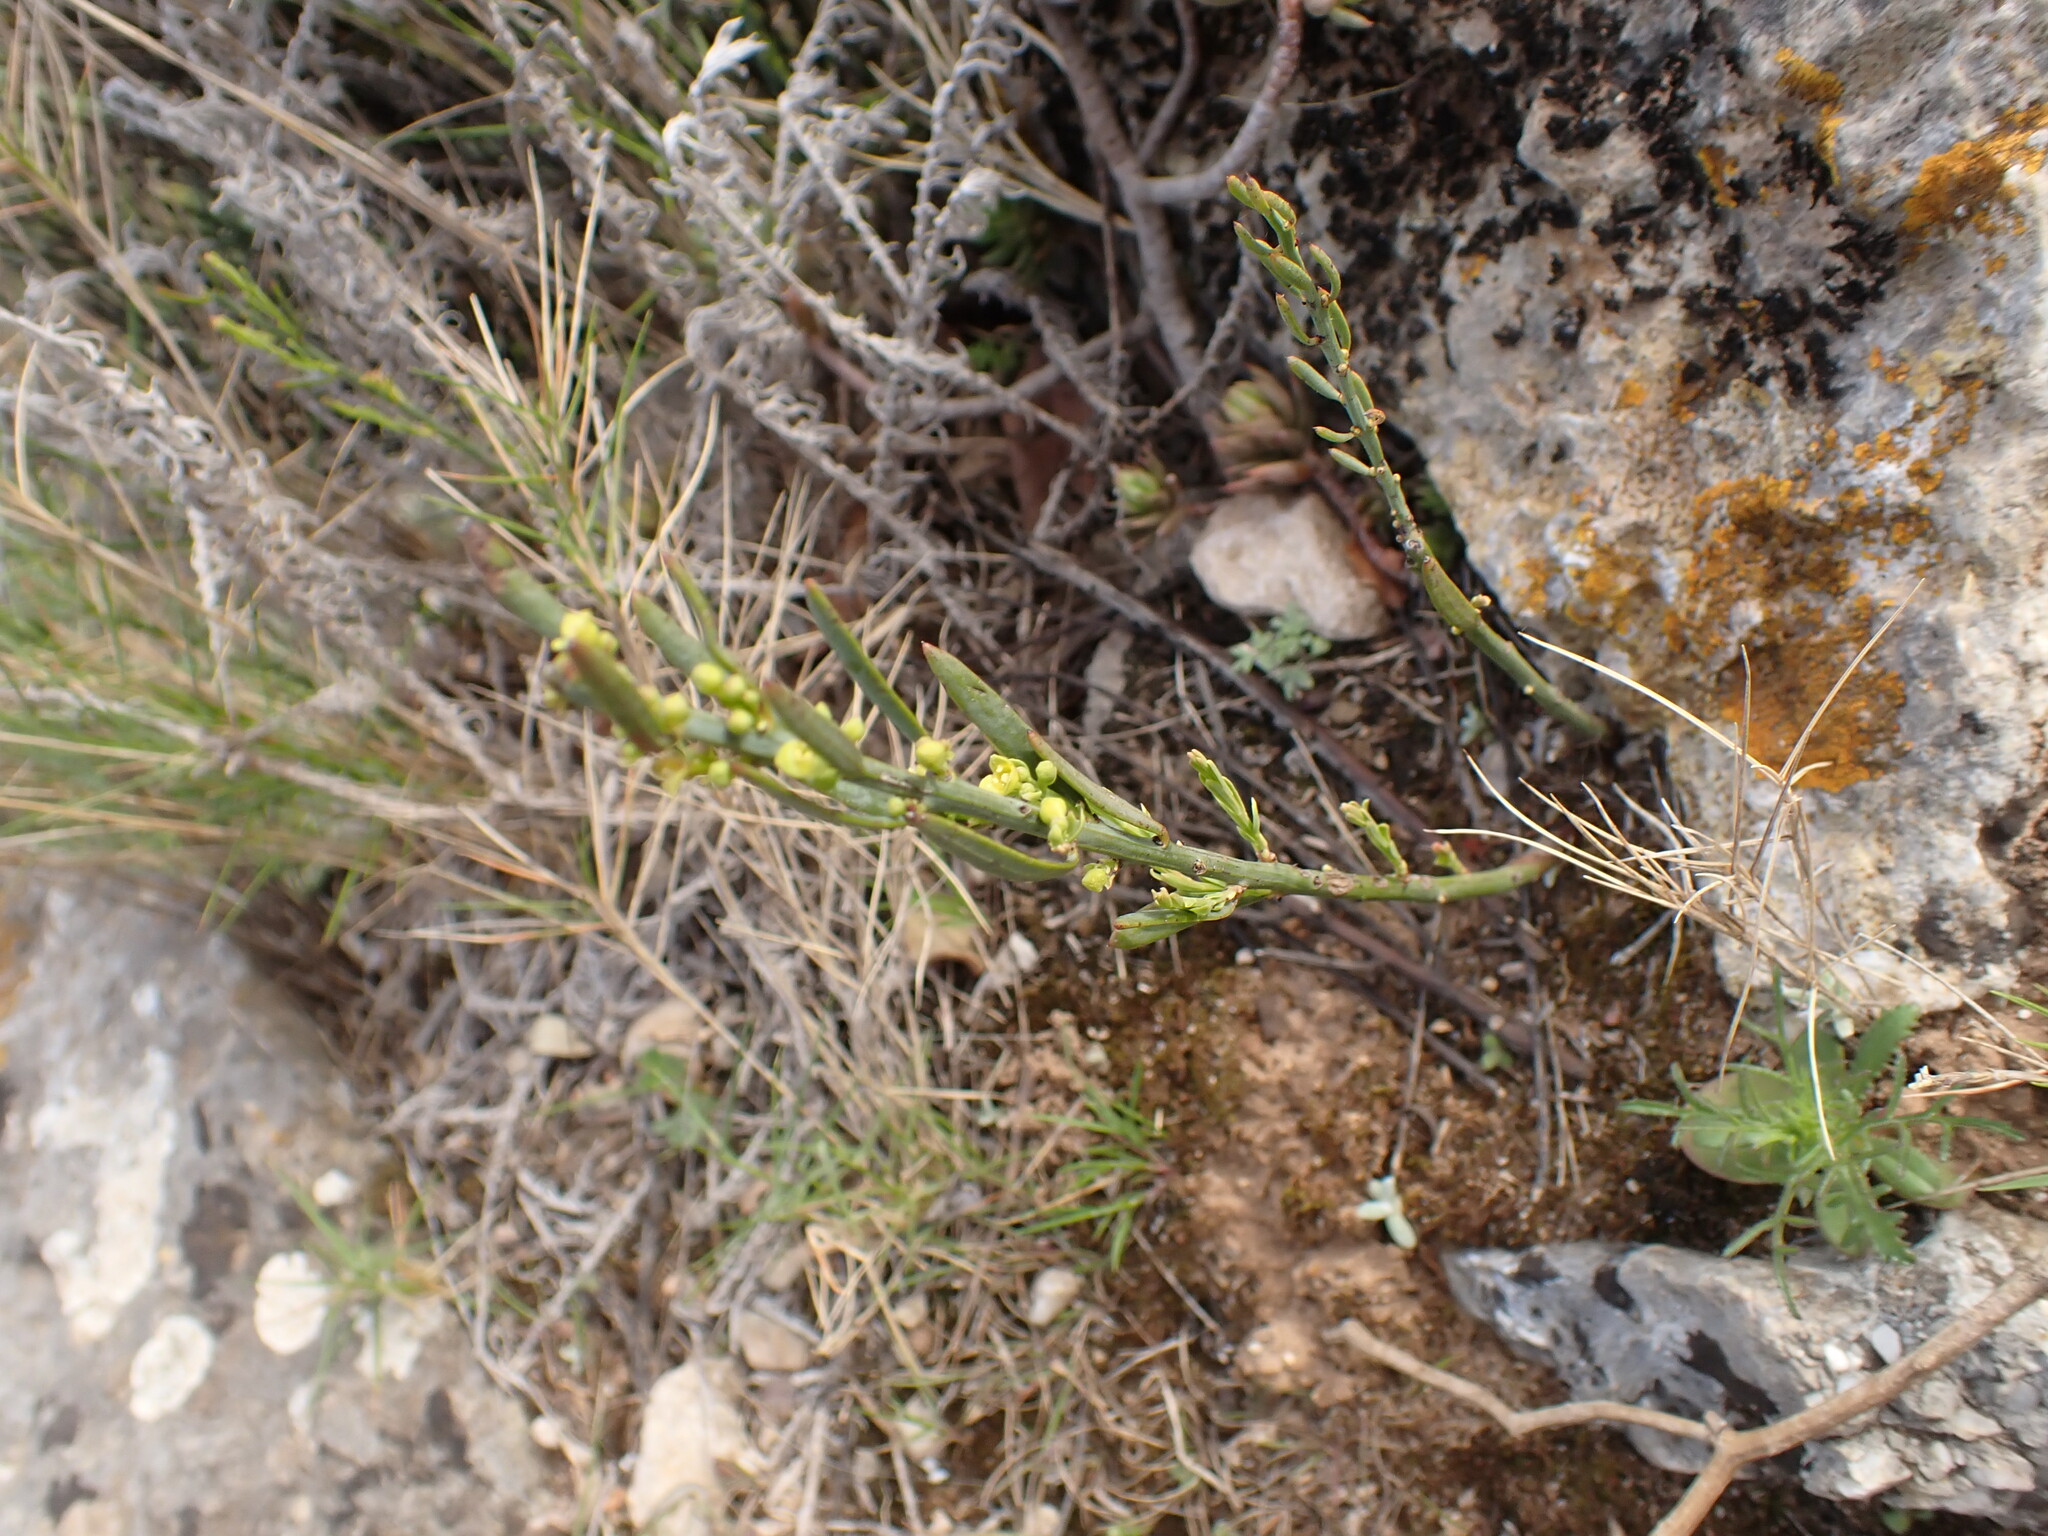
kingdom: Plantae
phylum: Tracheophyta
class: Magnoliopsida
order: Santalales
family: Santalaceae
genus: Osyris
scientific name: Osyris alba
